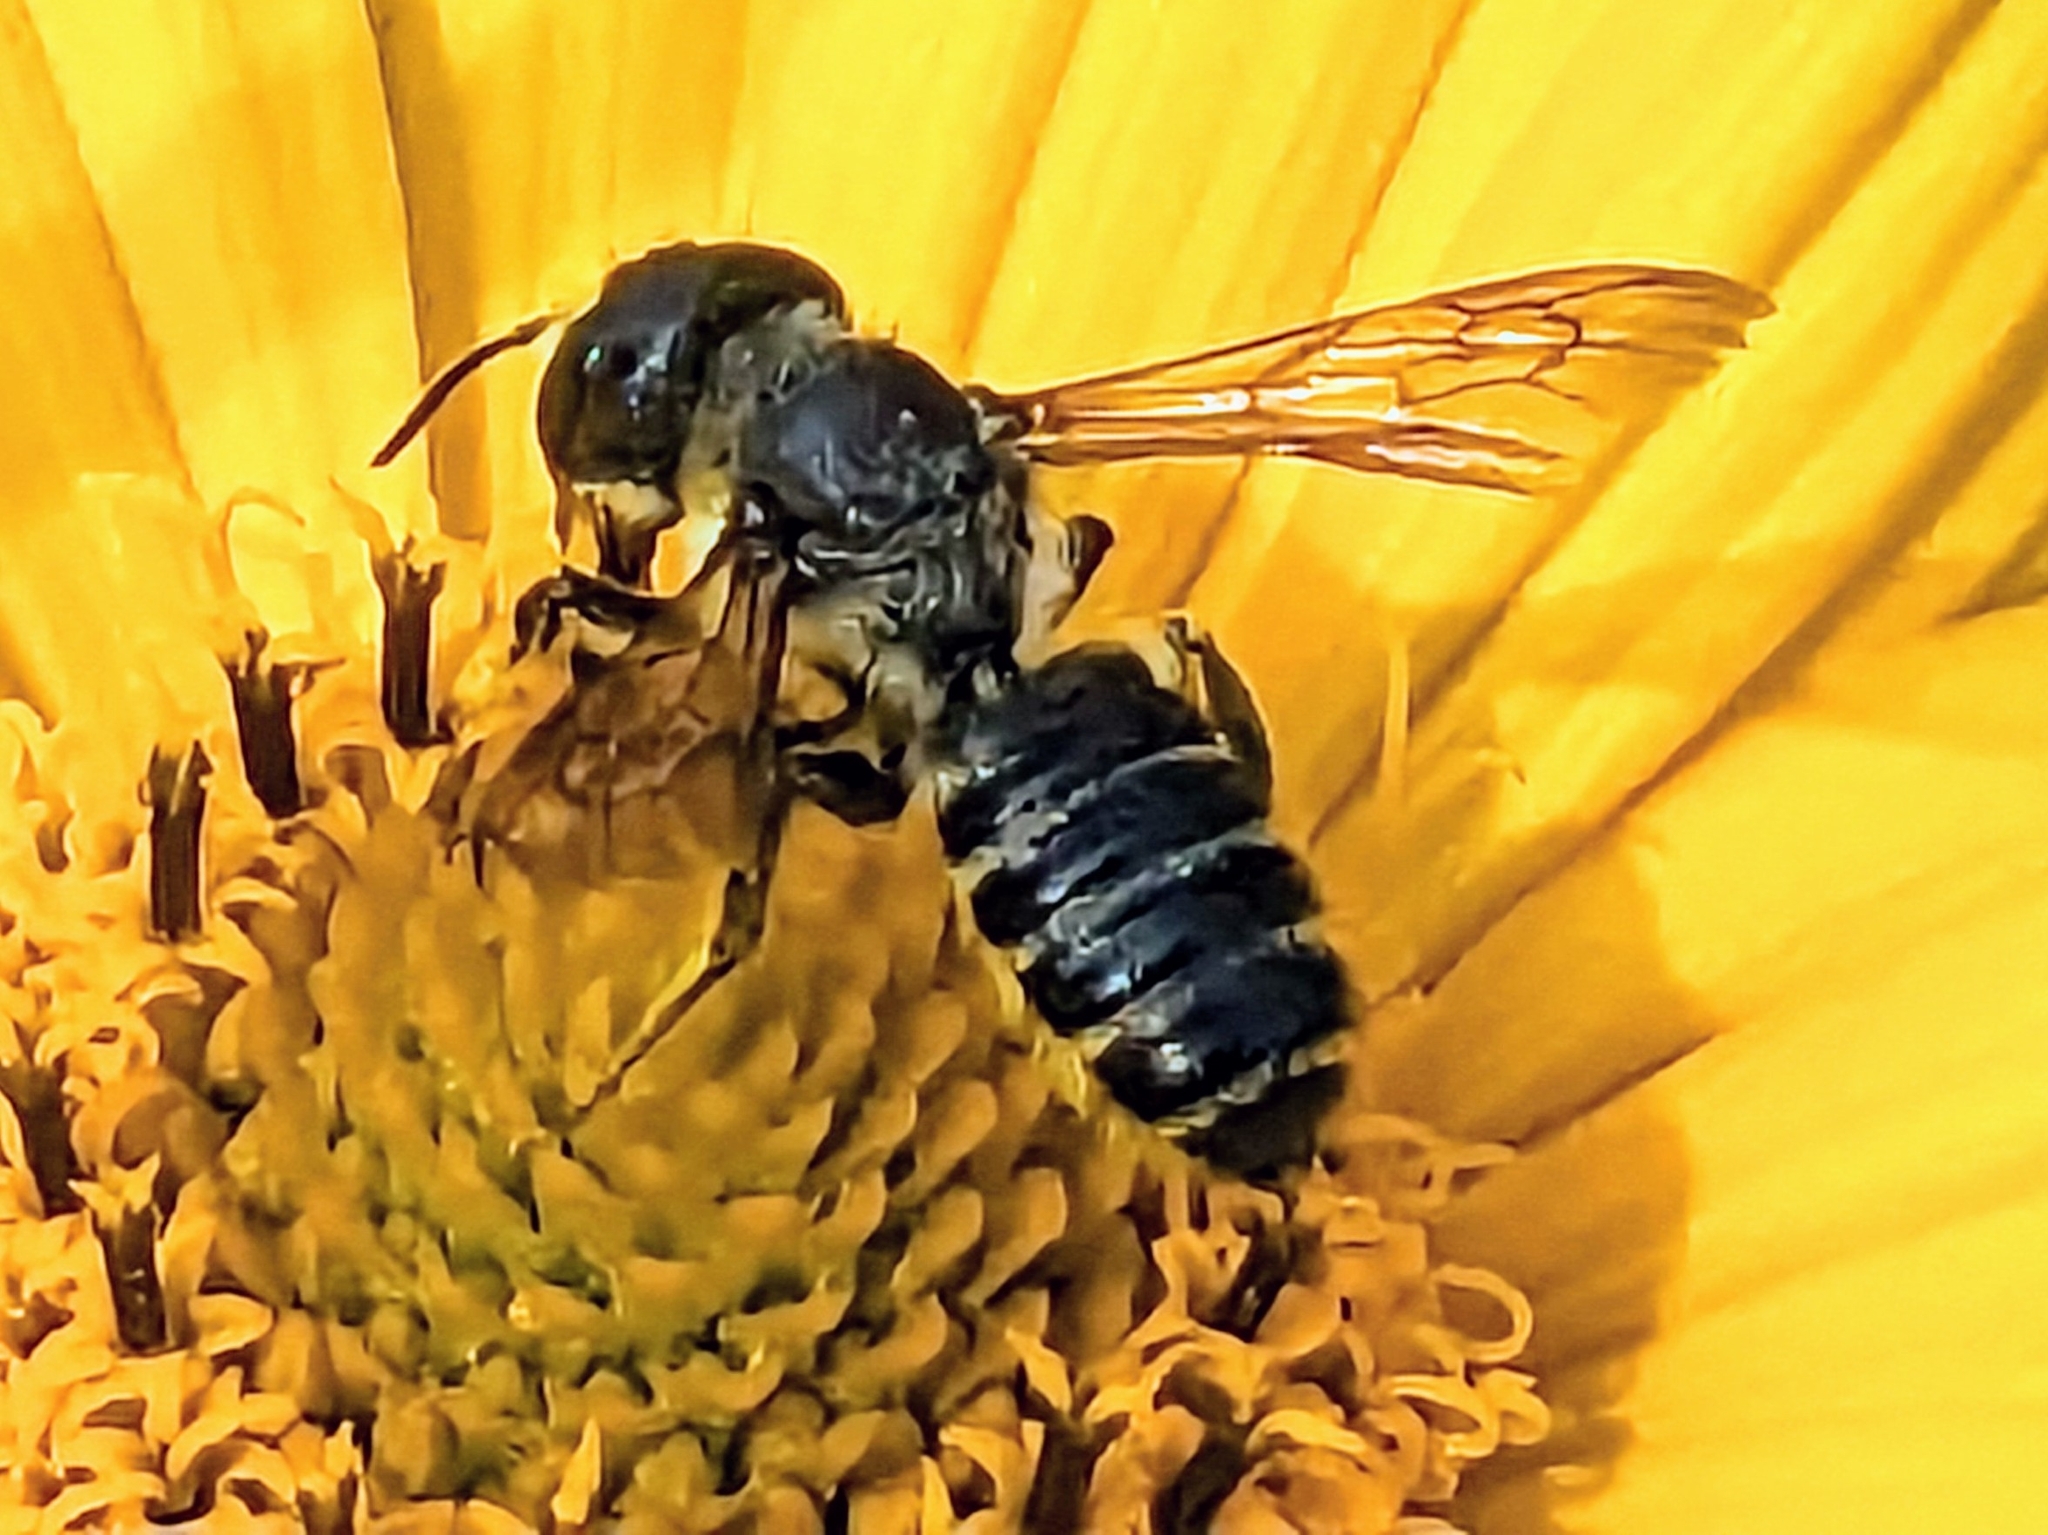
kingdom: Animalia
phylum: Arthropoda
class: Insecta
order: Hymenoptera
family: Megachilidae
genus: Megachile
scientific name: Megachile pugnata
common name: Pugnacious leafcutter bee
